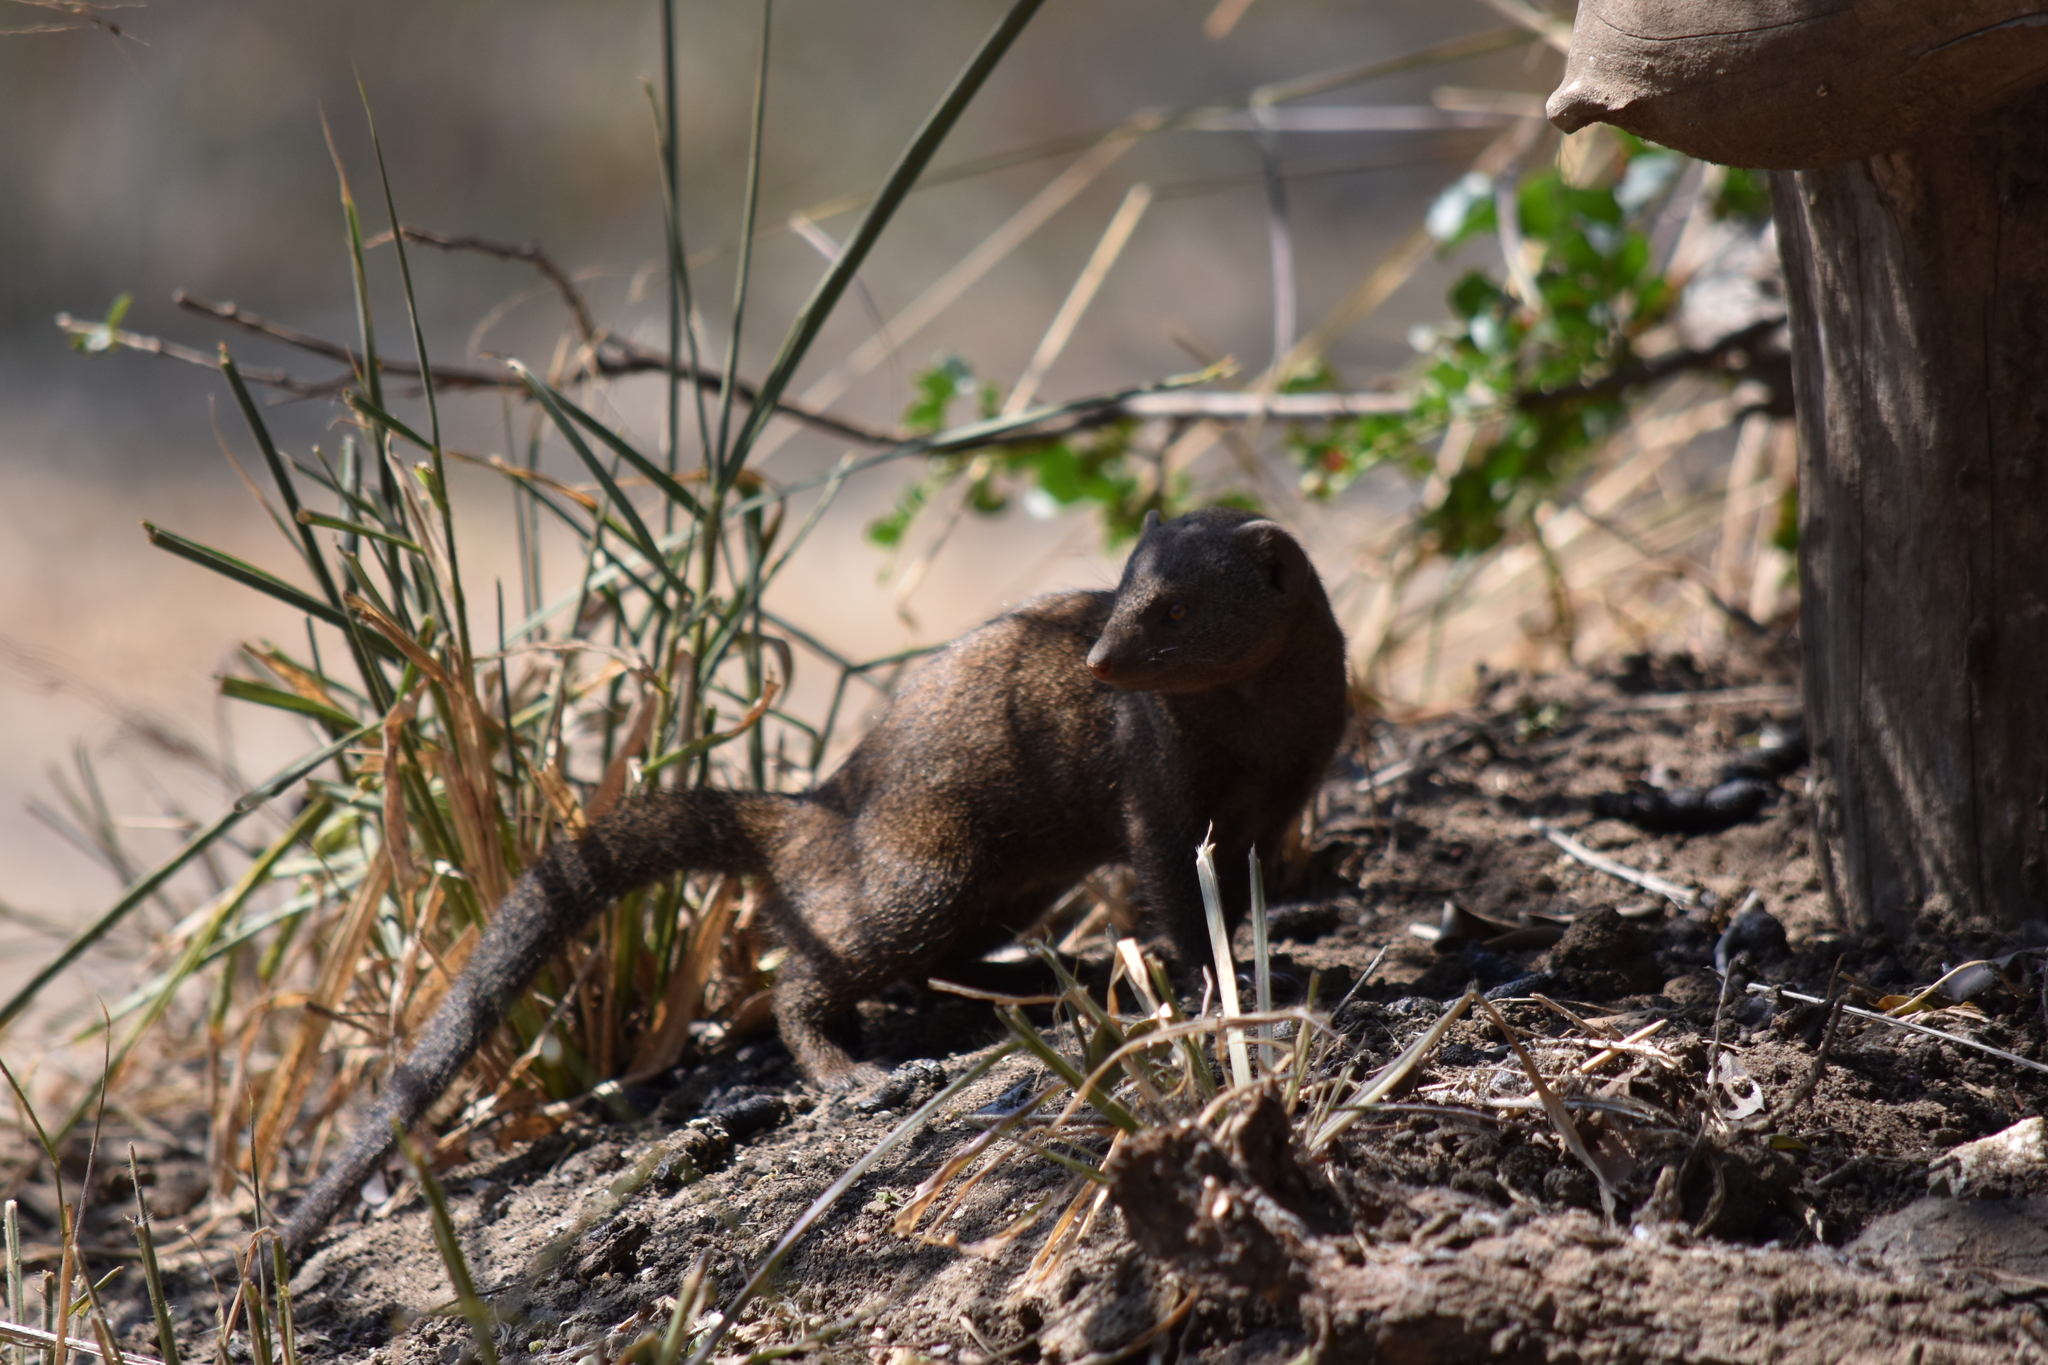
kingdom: Animalia
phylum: Chordata
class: Mammalia
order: Carnivora
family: Herpestidae
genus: Helogale
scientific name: Helogale parvula
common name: Common dwarf mongoose
